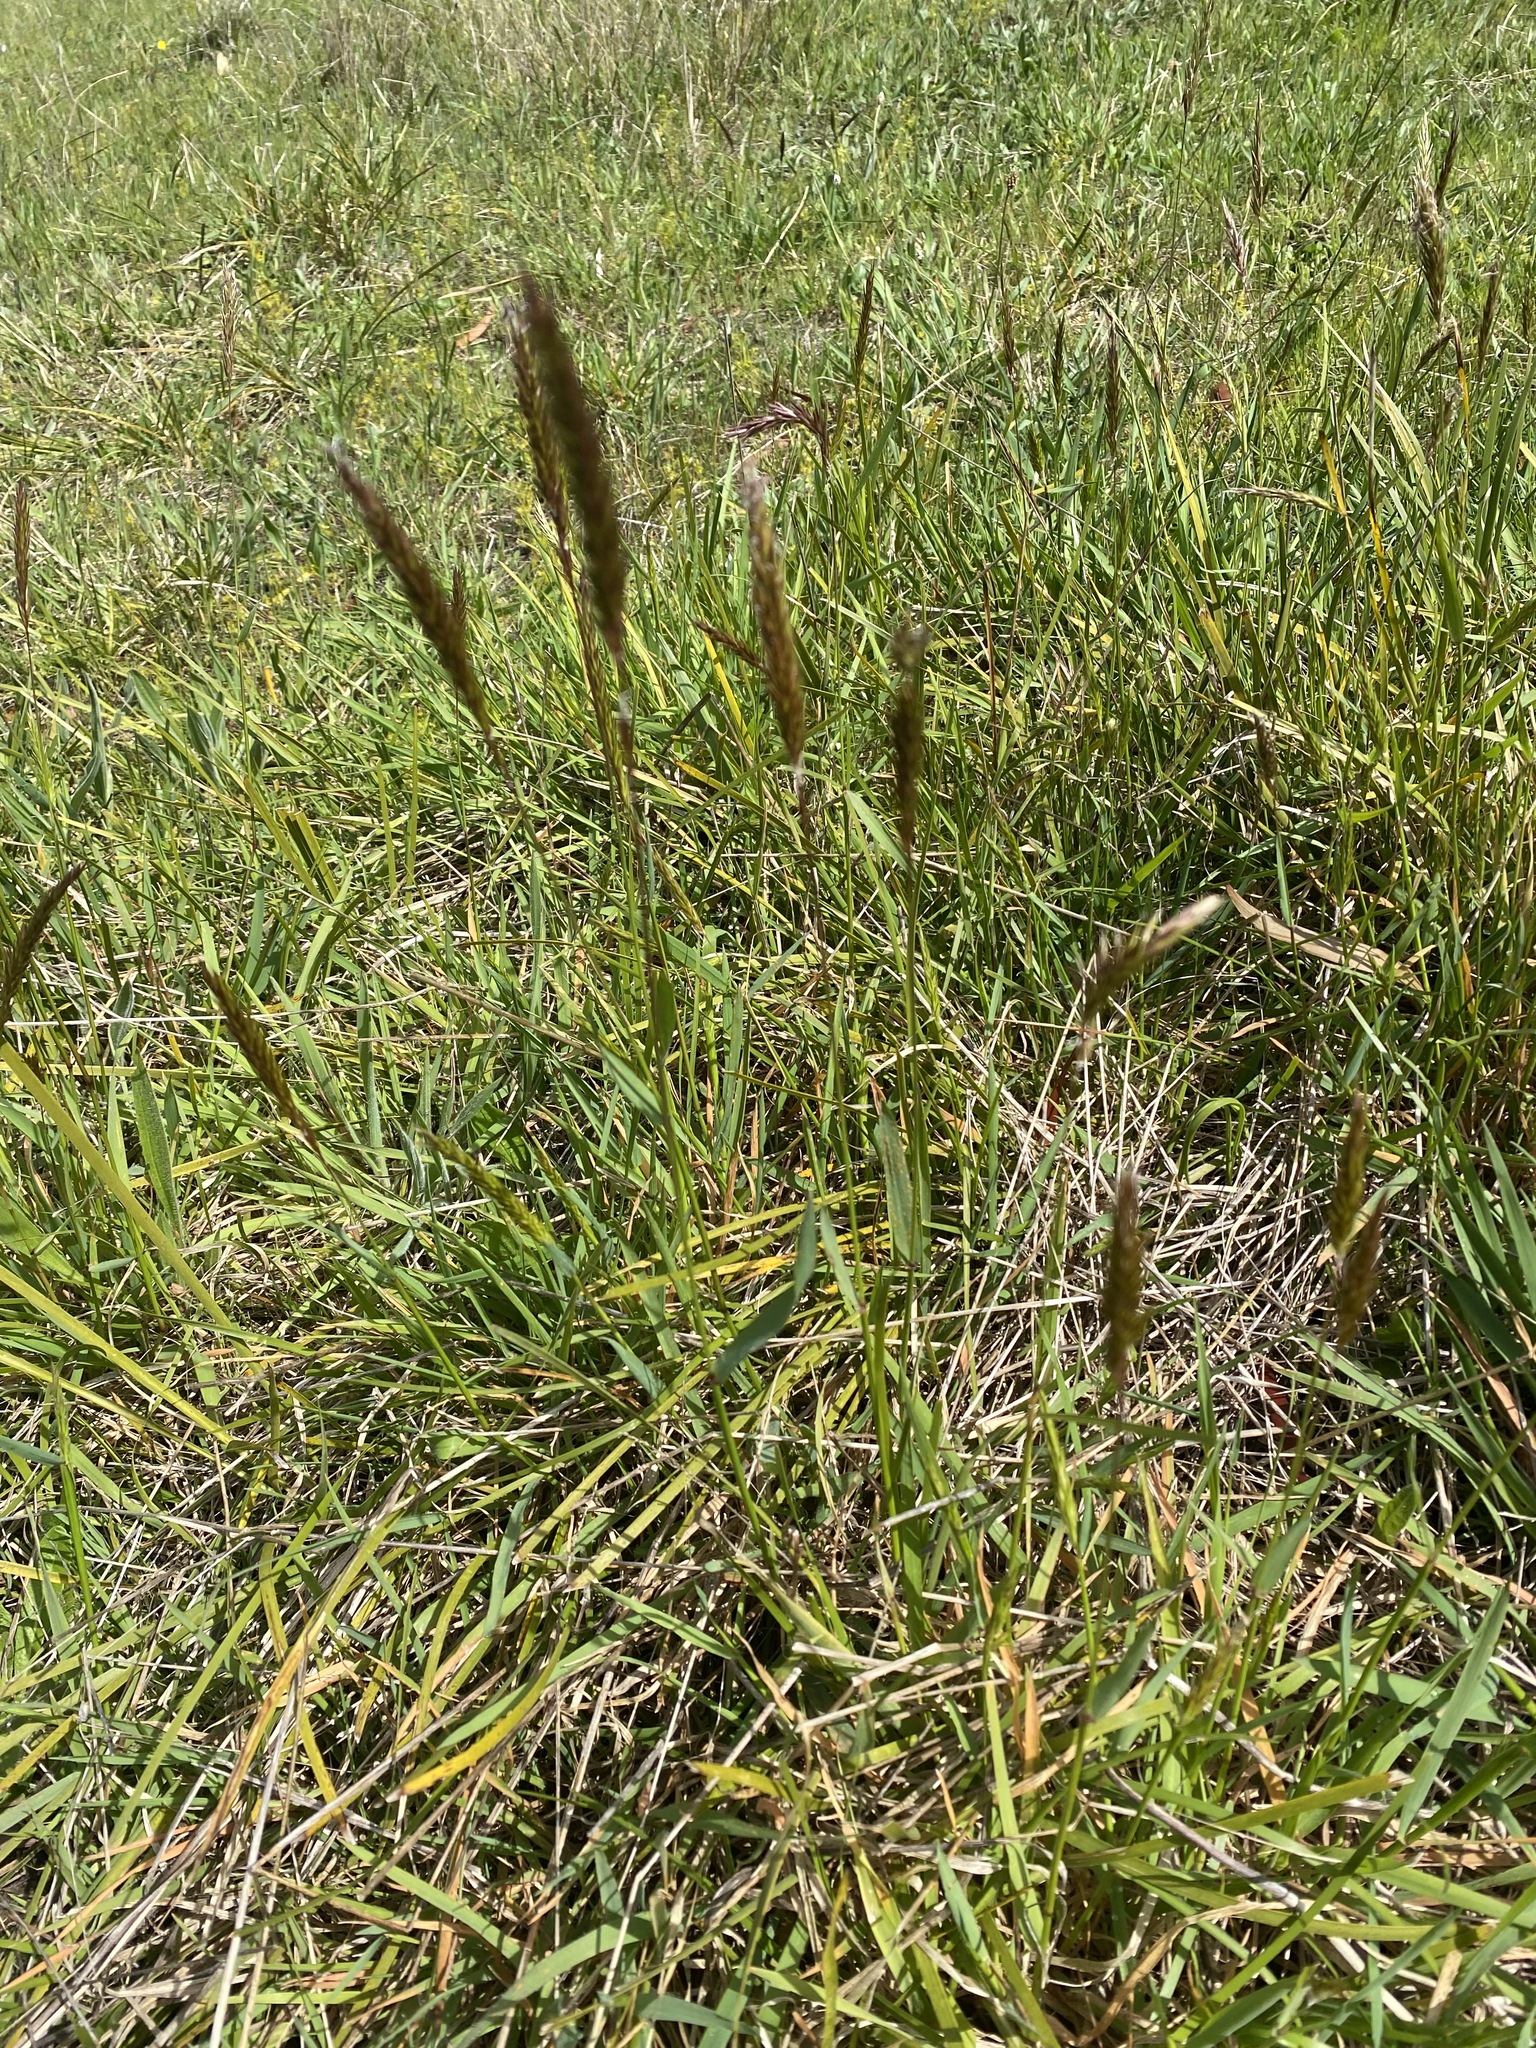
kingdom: Plantae
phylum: Tracheophyta
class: Liliopsida
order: Poales
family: Poaceae
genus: Anthoxanthum
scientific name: Anthoxanthum odoratum
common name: Sweet vernalgrass
